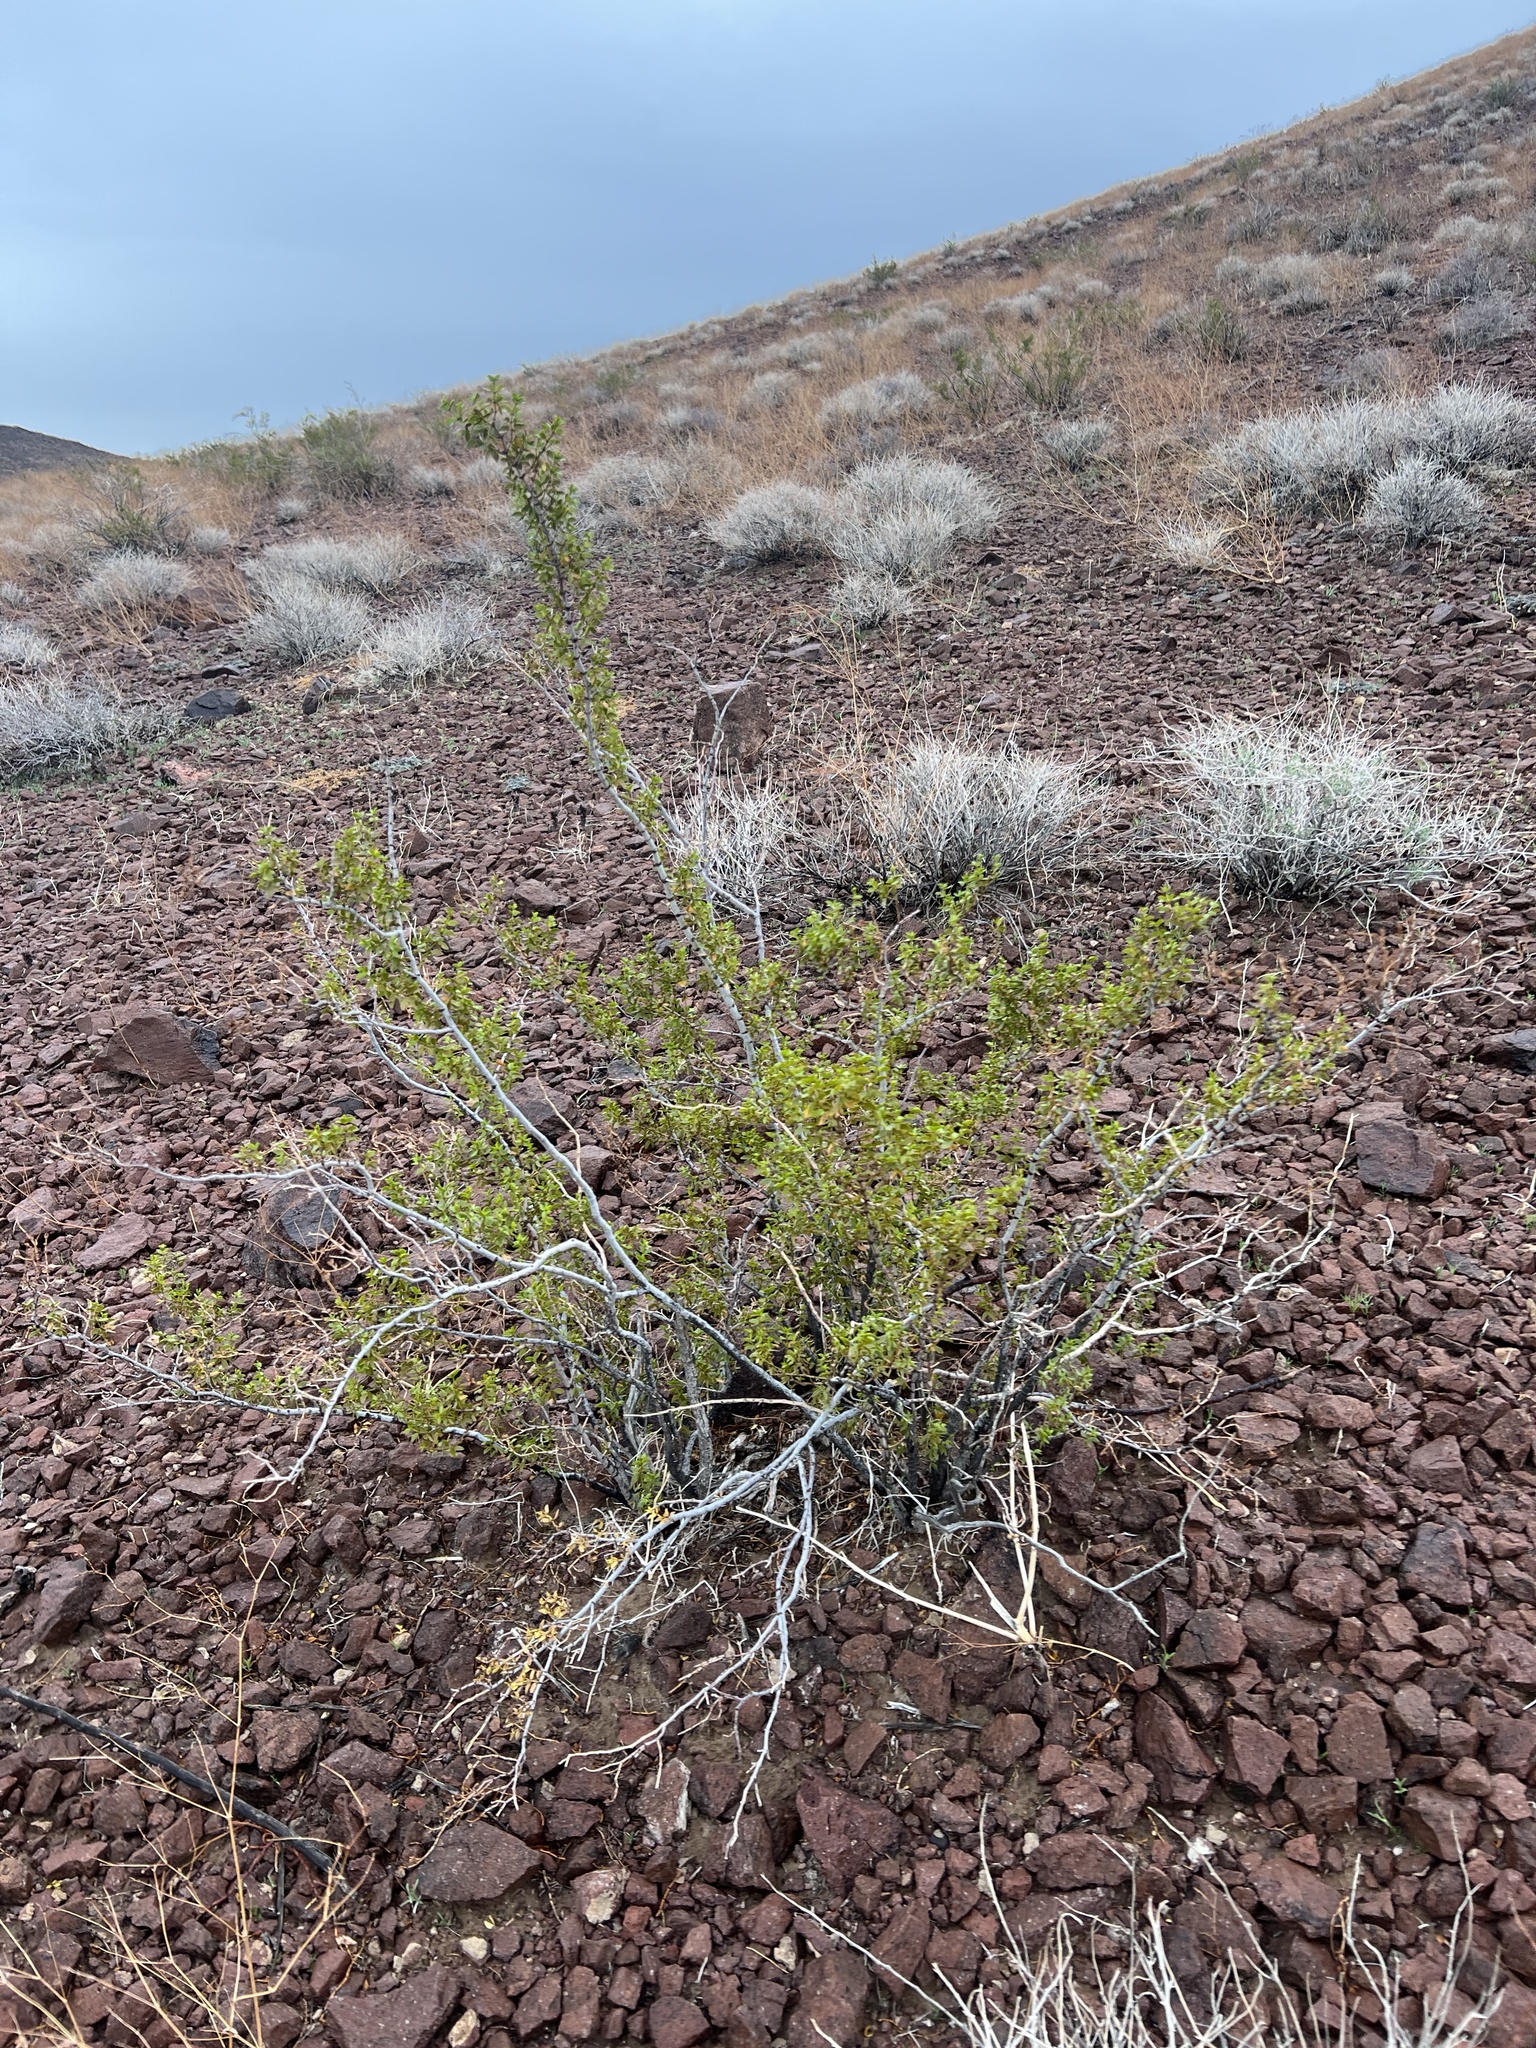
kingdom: Plantae
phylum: Tracheophyta
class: Magnoliopsida
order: Zygophyllales
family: Zygophyllaceae
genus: Larrea
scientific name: Larrea tridentata
